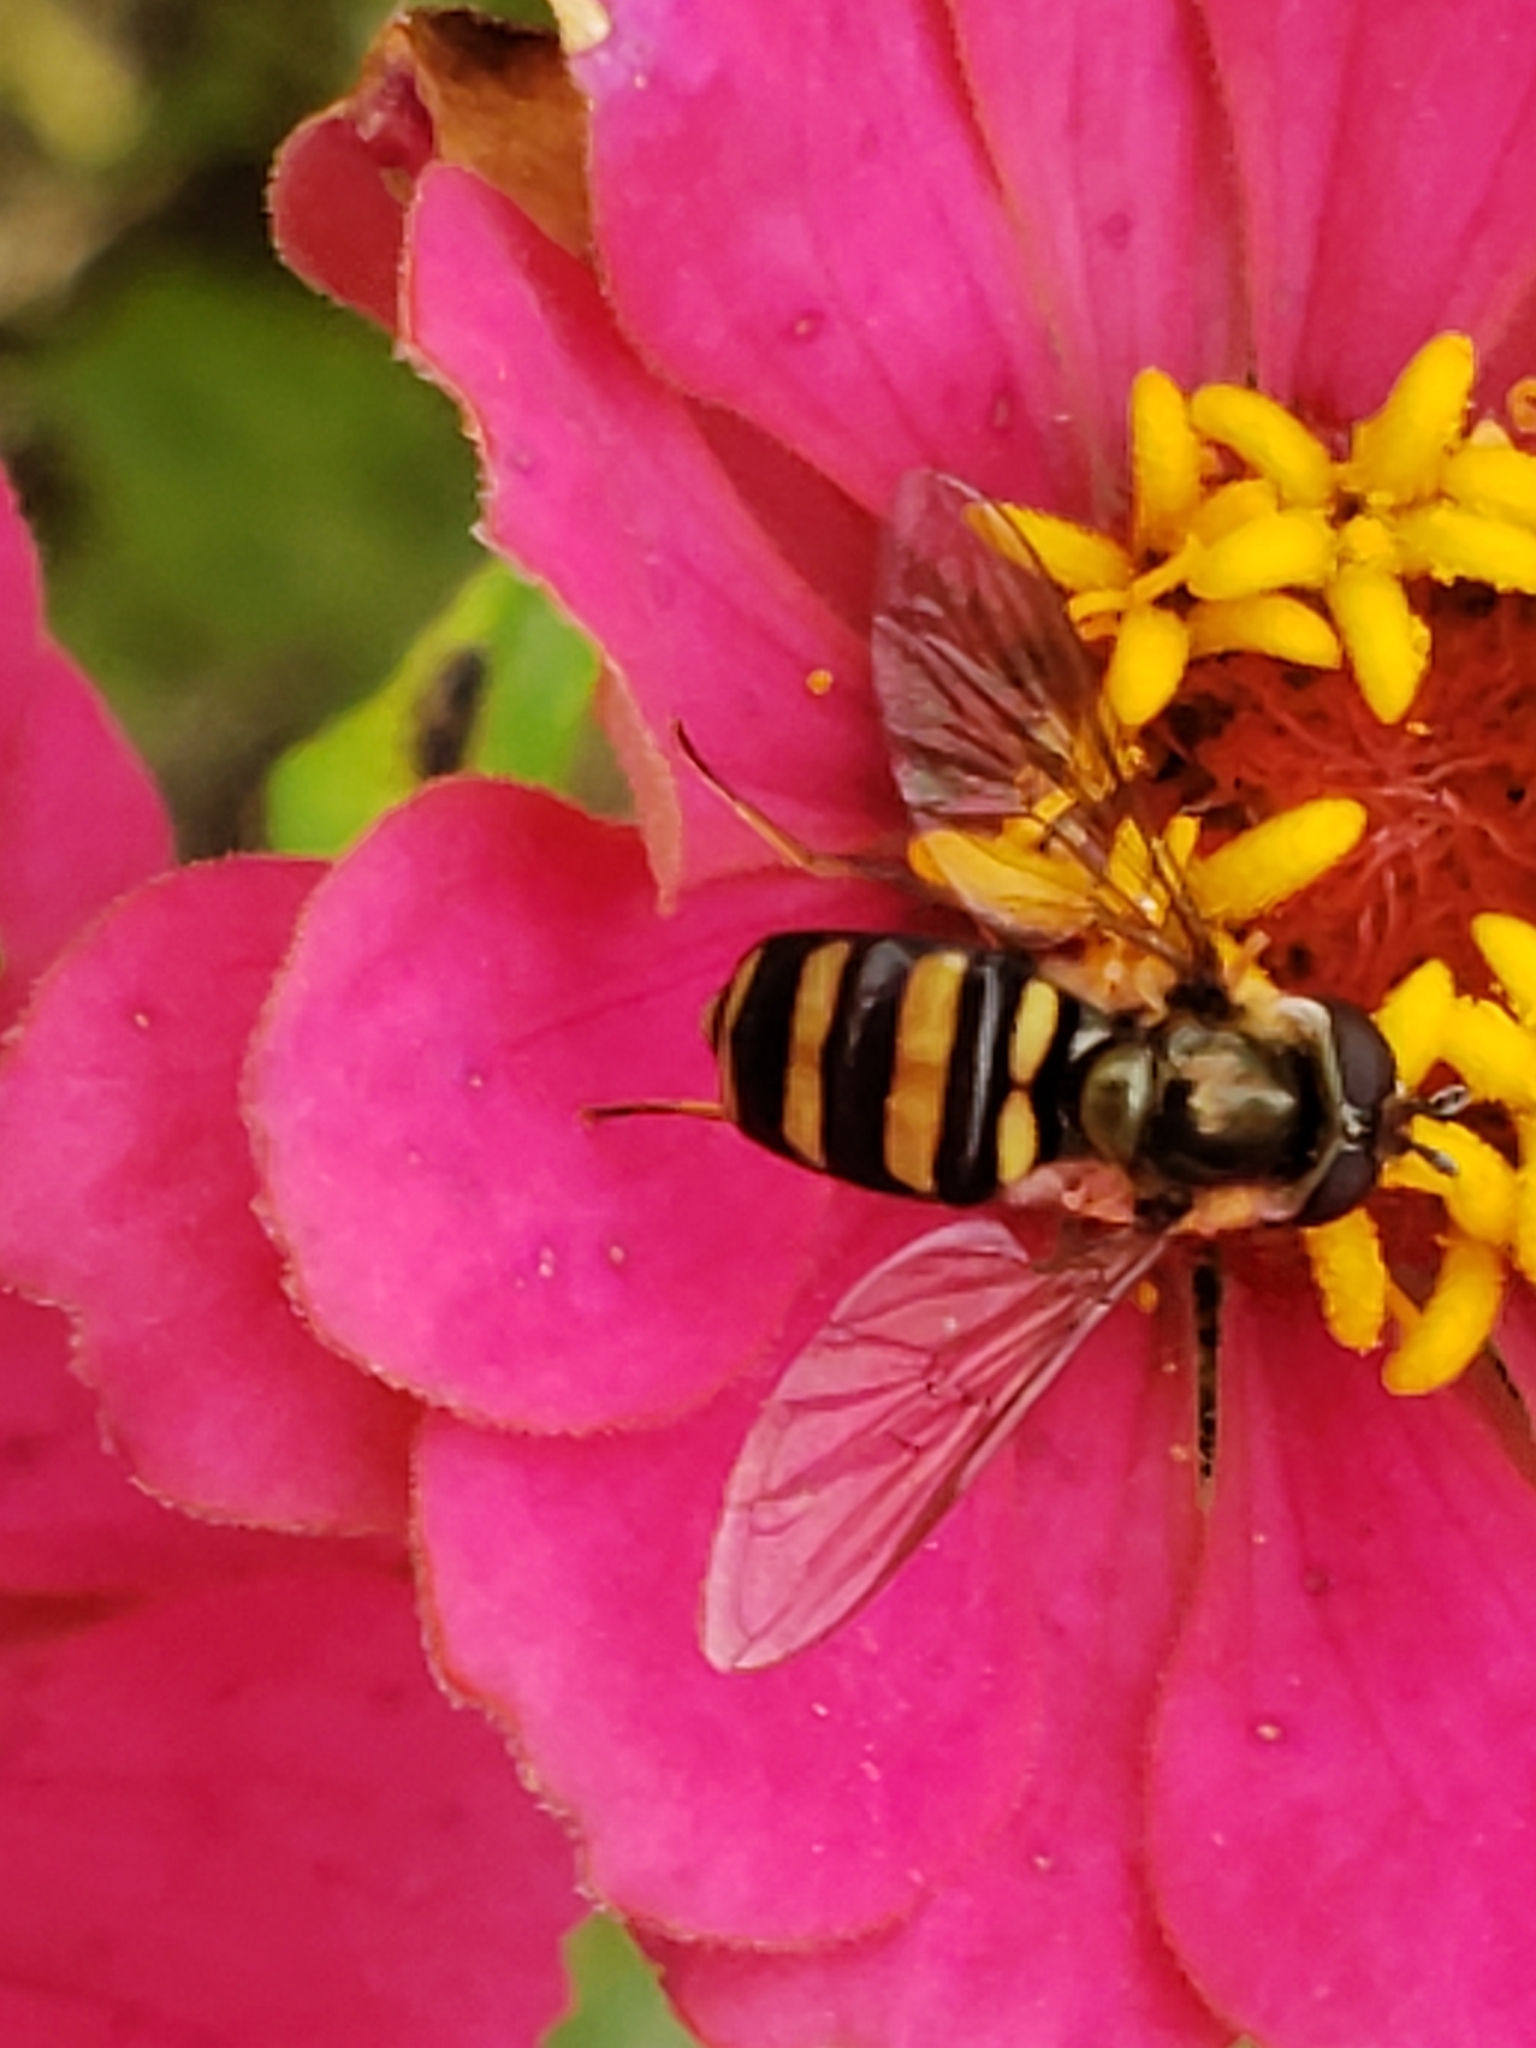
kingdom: Animalia
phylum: Arthropoda
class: Insecta
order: Diptera
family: Syrphidae
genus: Eupeodes
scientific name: Eupeodes
